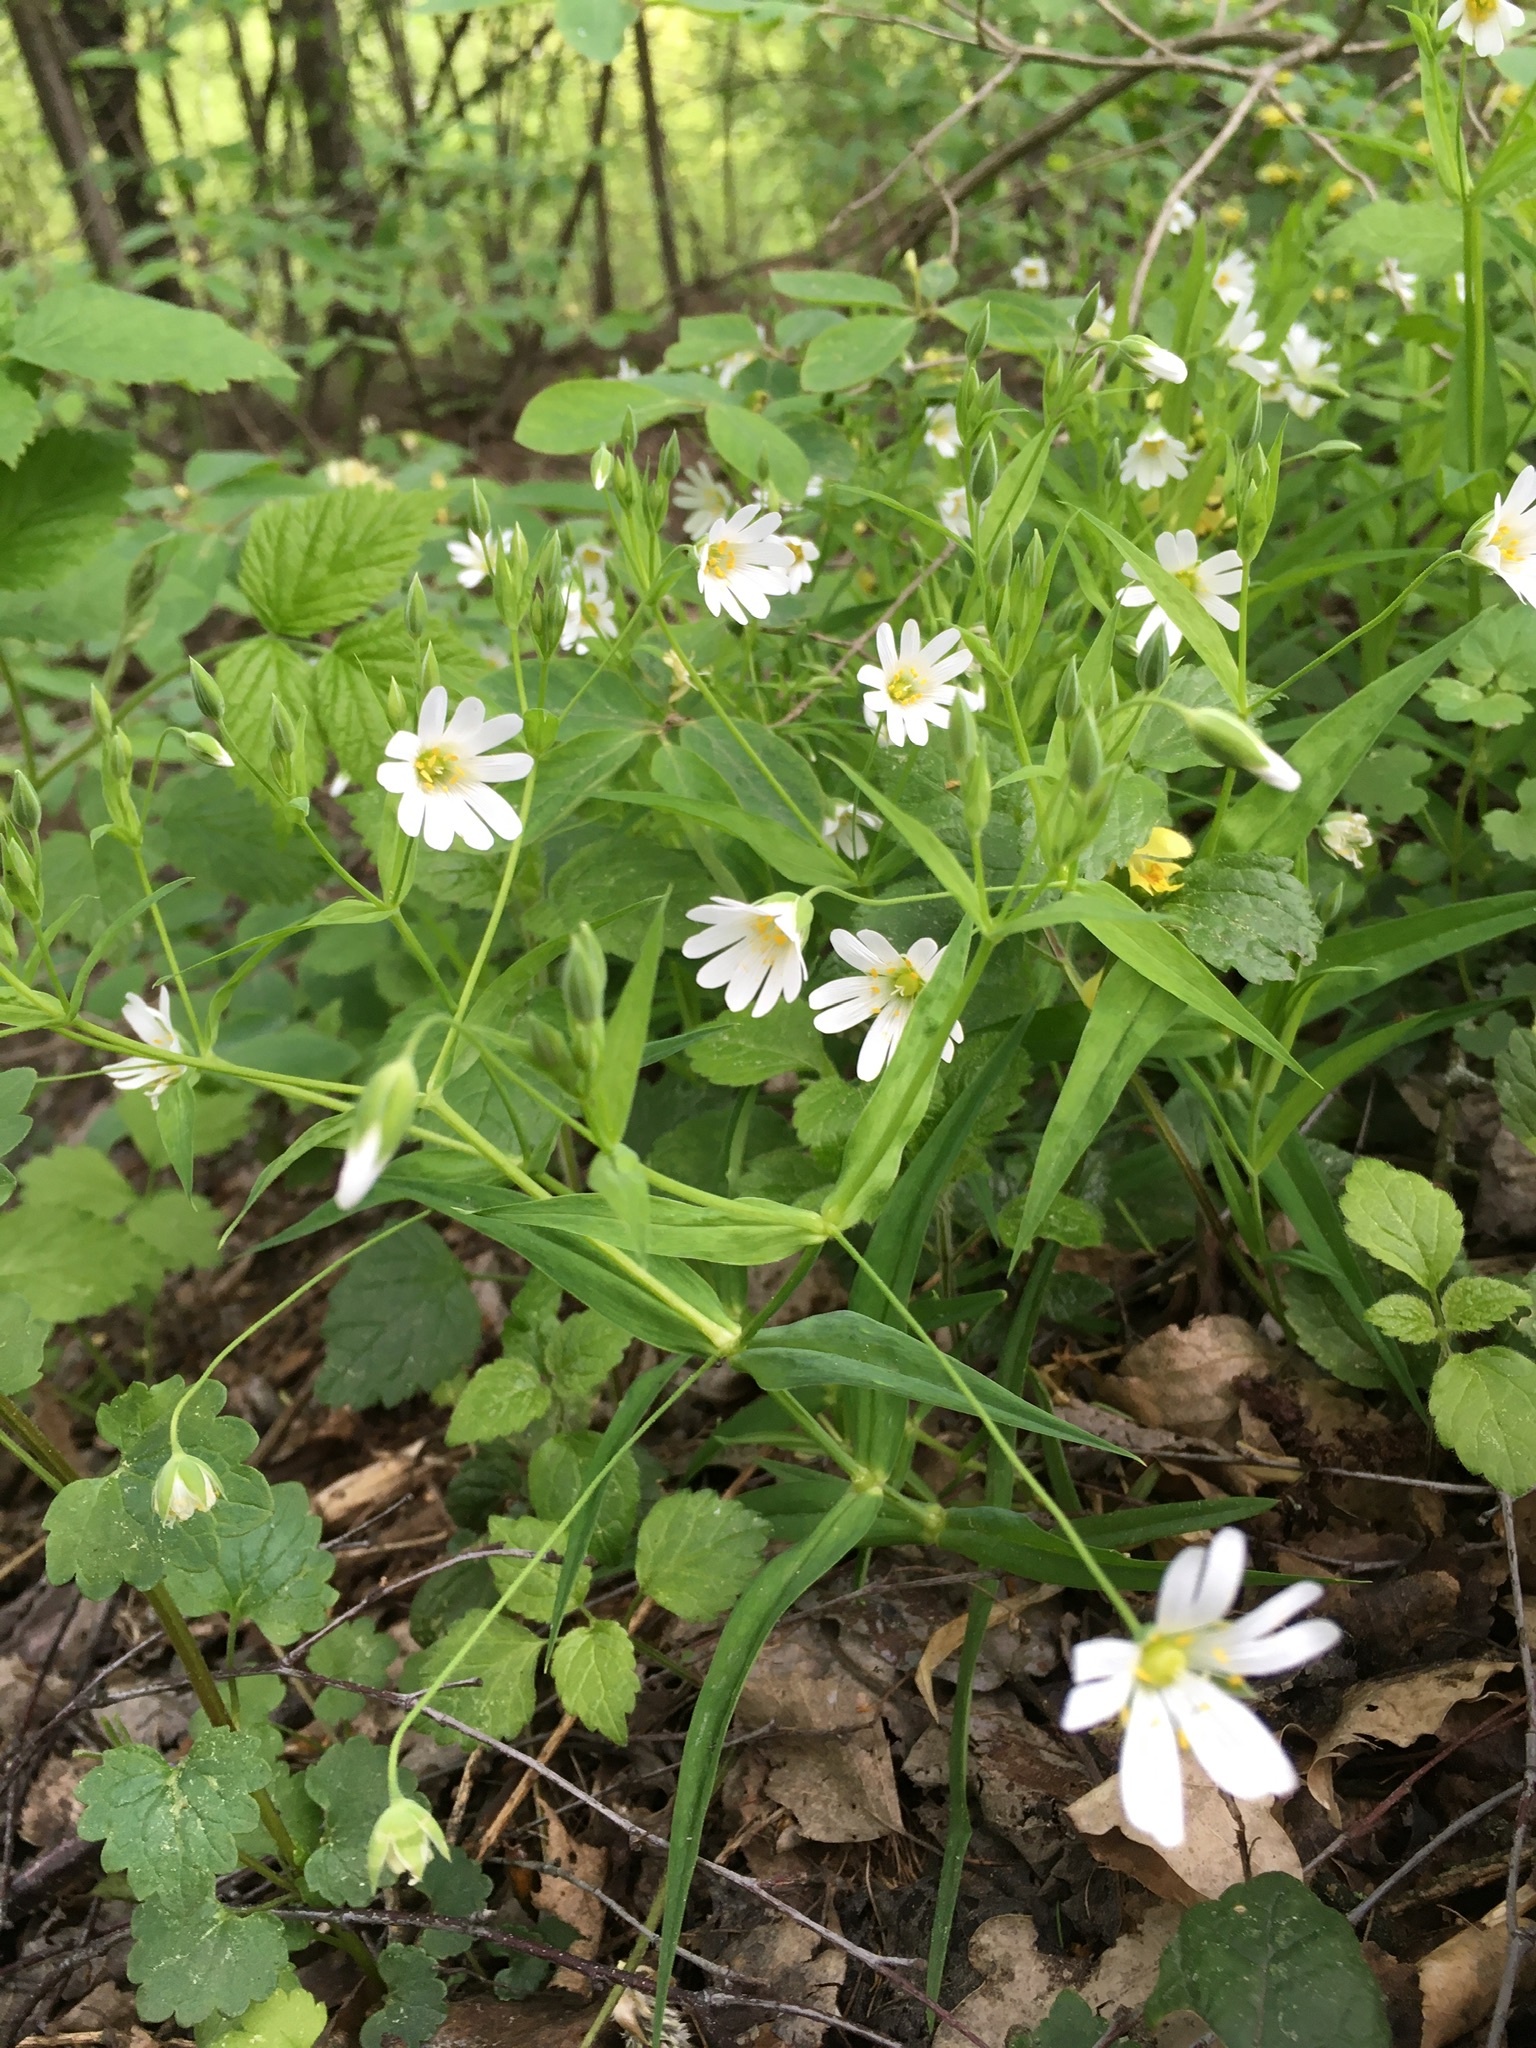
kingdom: Plantae
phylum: Tracheophyta
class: Magnoliopsida
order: Caryophyllales
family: Caryophyllaceae
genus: Rabelera
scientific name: Rabelera holostea
